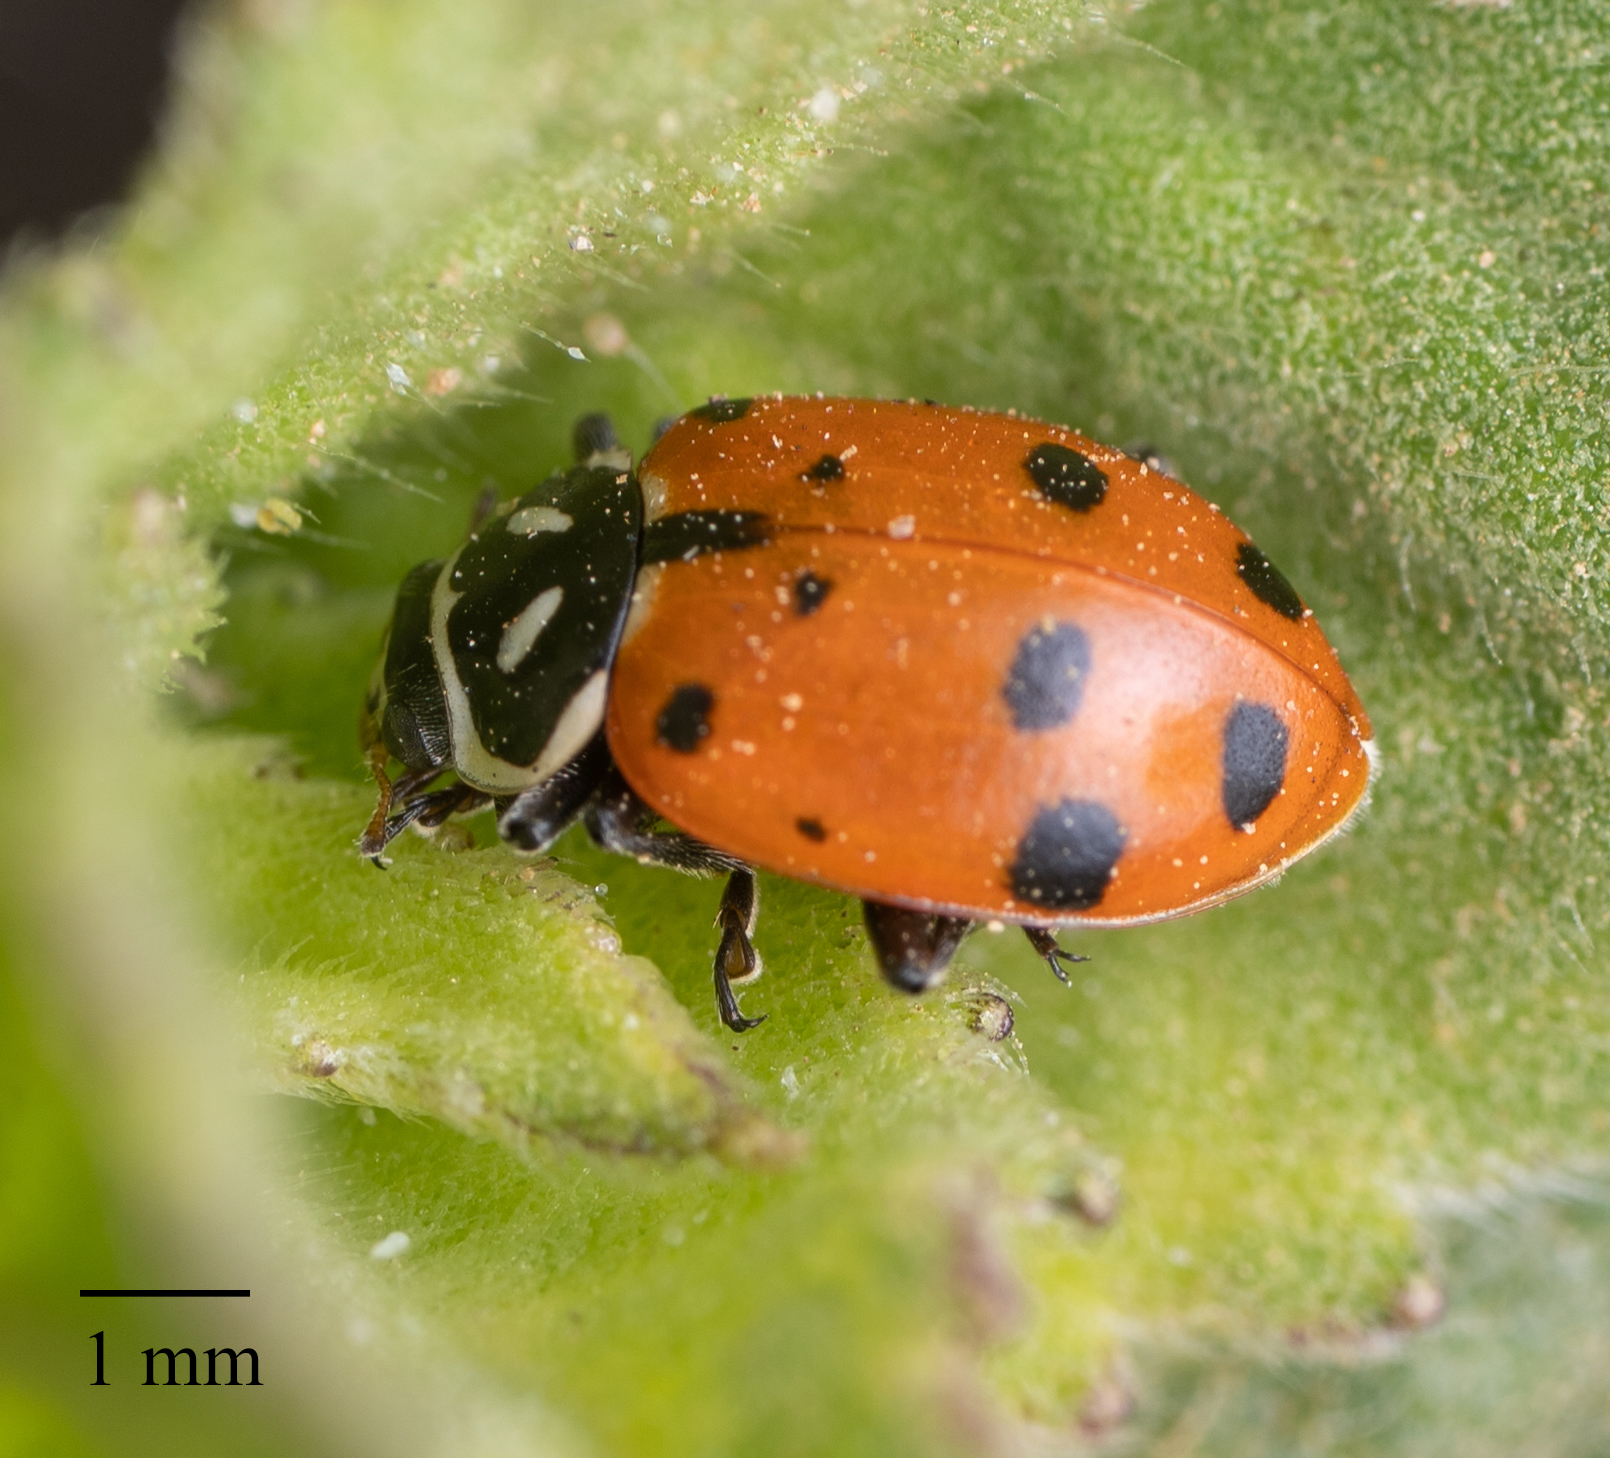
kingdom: Animalia
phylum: Arthropoda
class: Insecta
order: Coleoptera
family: Coccinellidae
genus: Hippodamia
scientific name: Hippodamia convergens
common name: Convergent lady beetle
